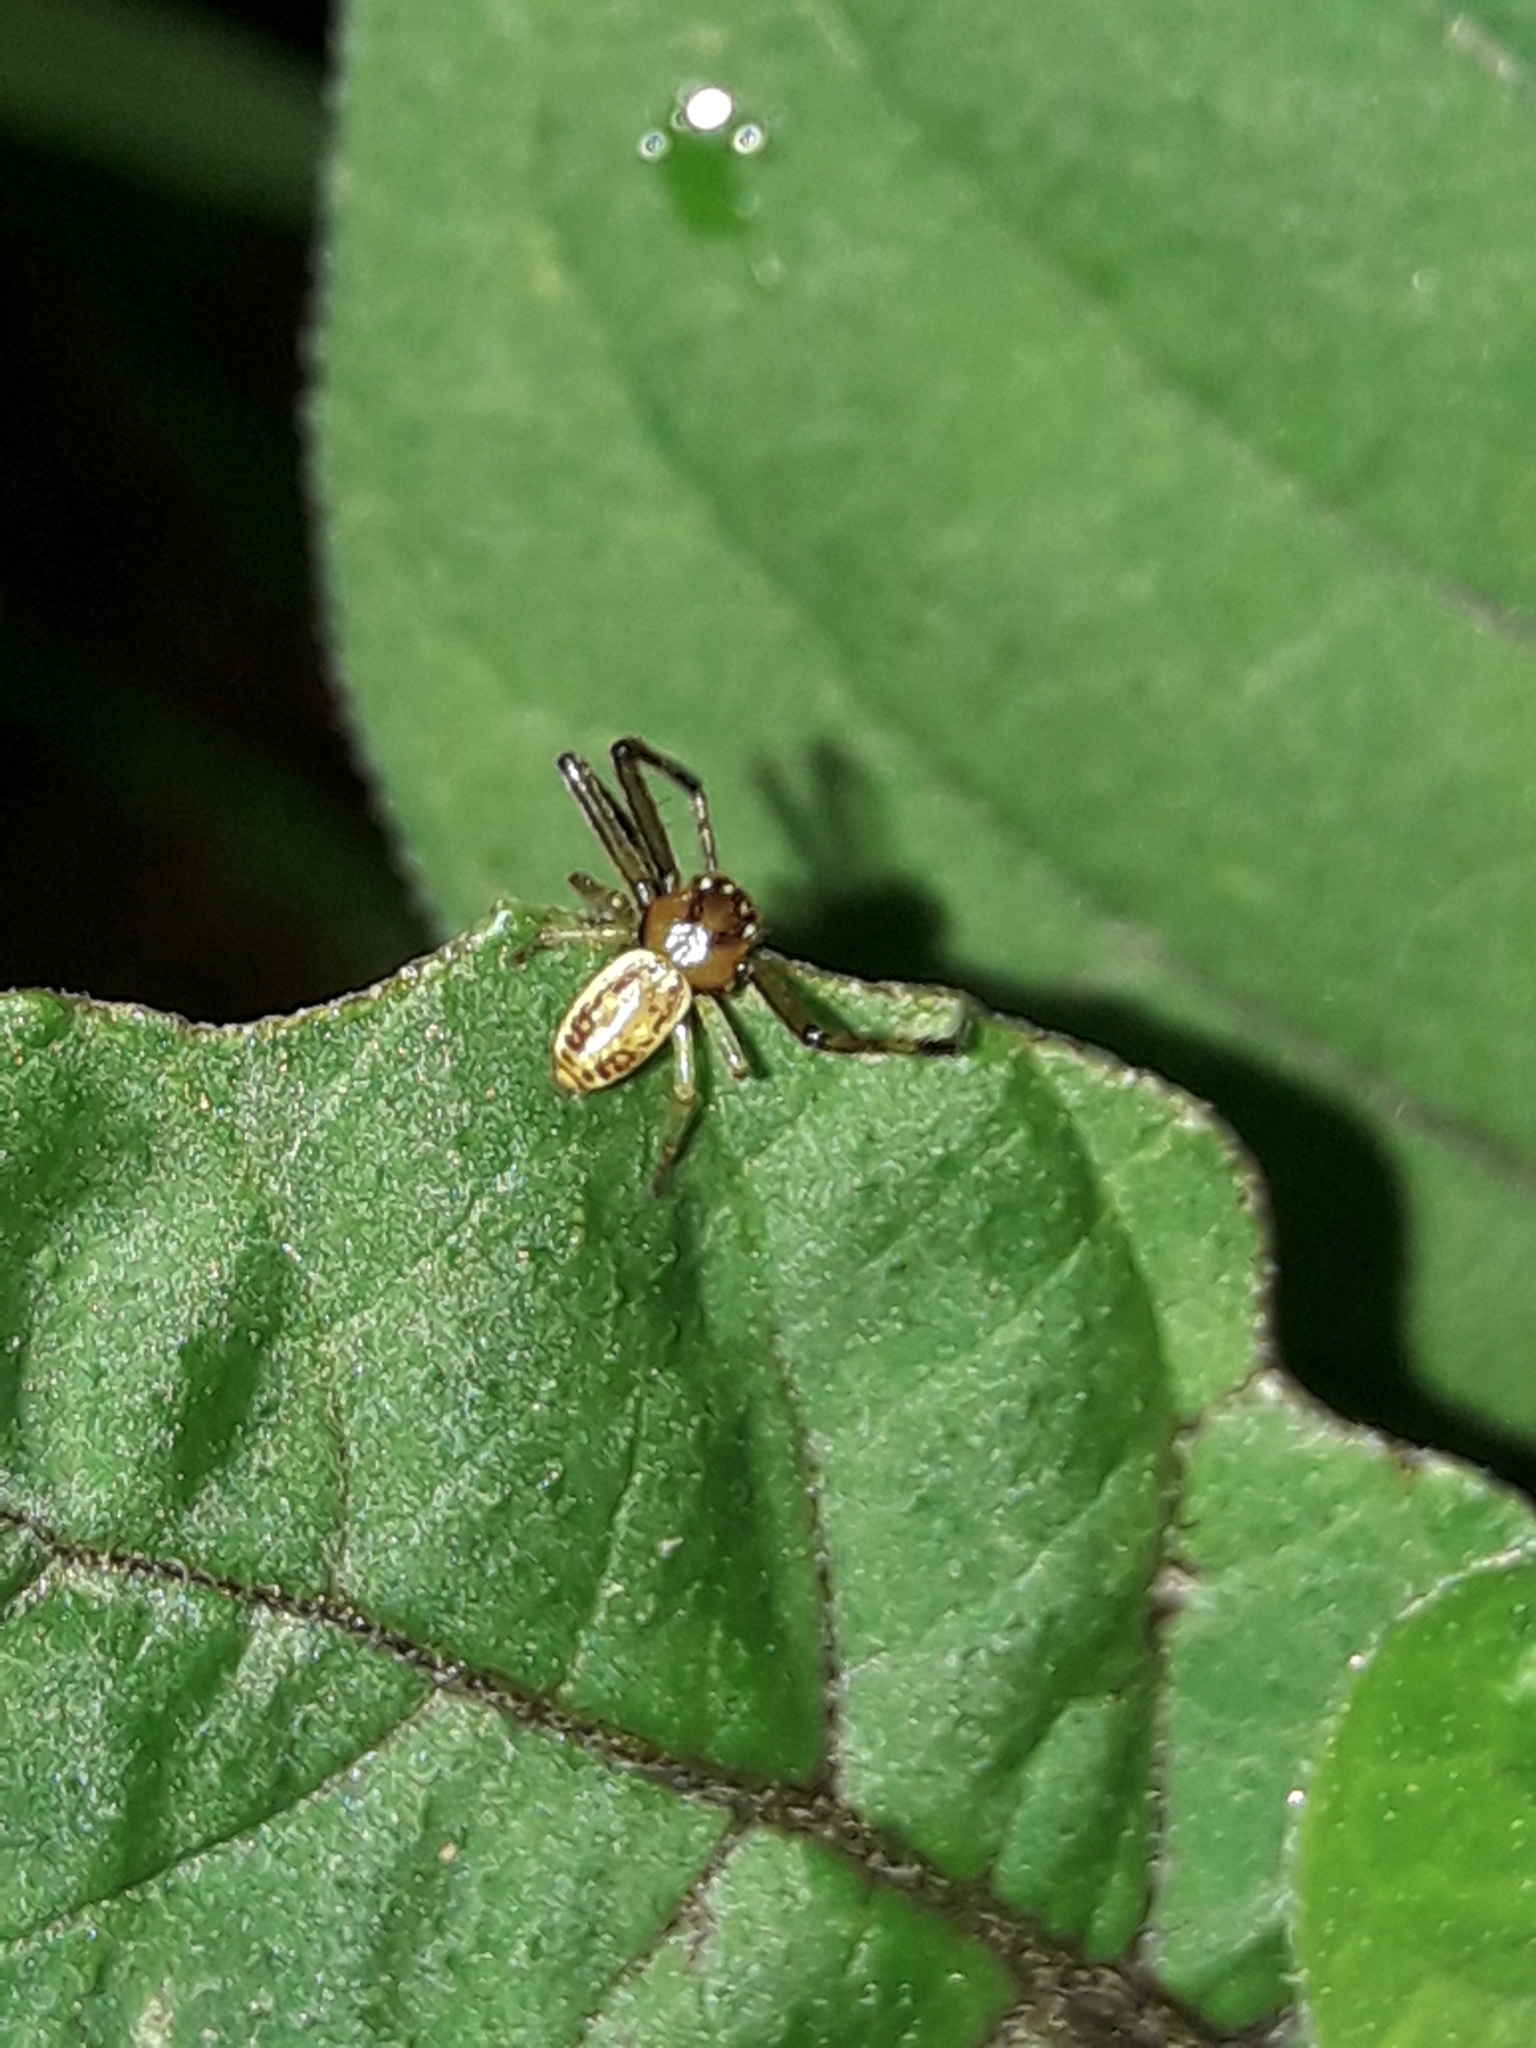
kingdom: Animalia
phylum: Arthropoda
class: Arachnida
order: Araneae
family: Thomisidae
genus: Diaea
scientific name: Diaea ambara
